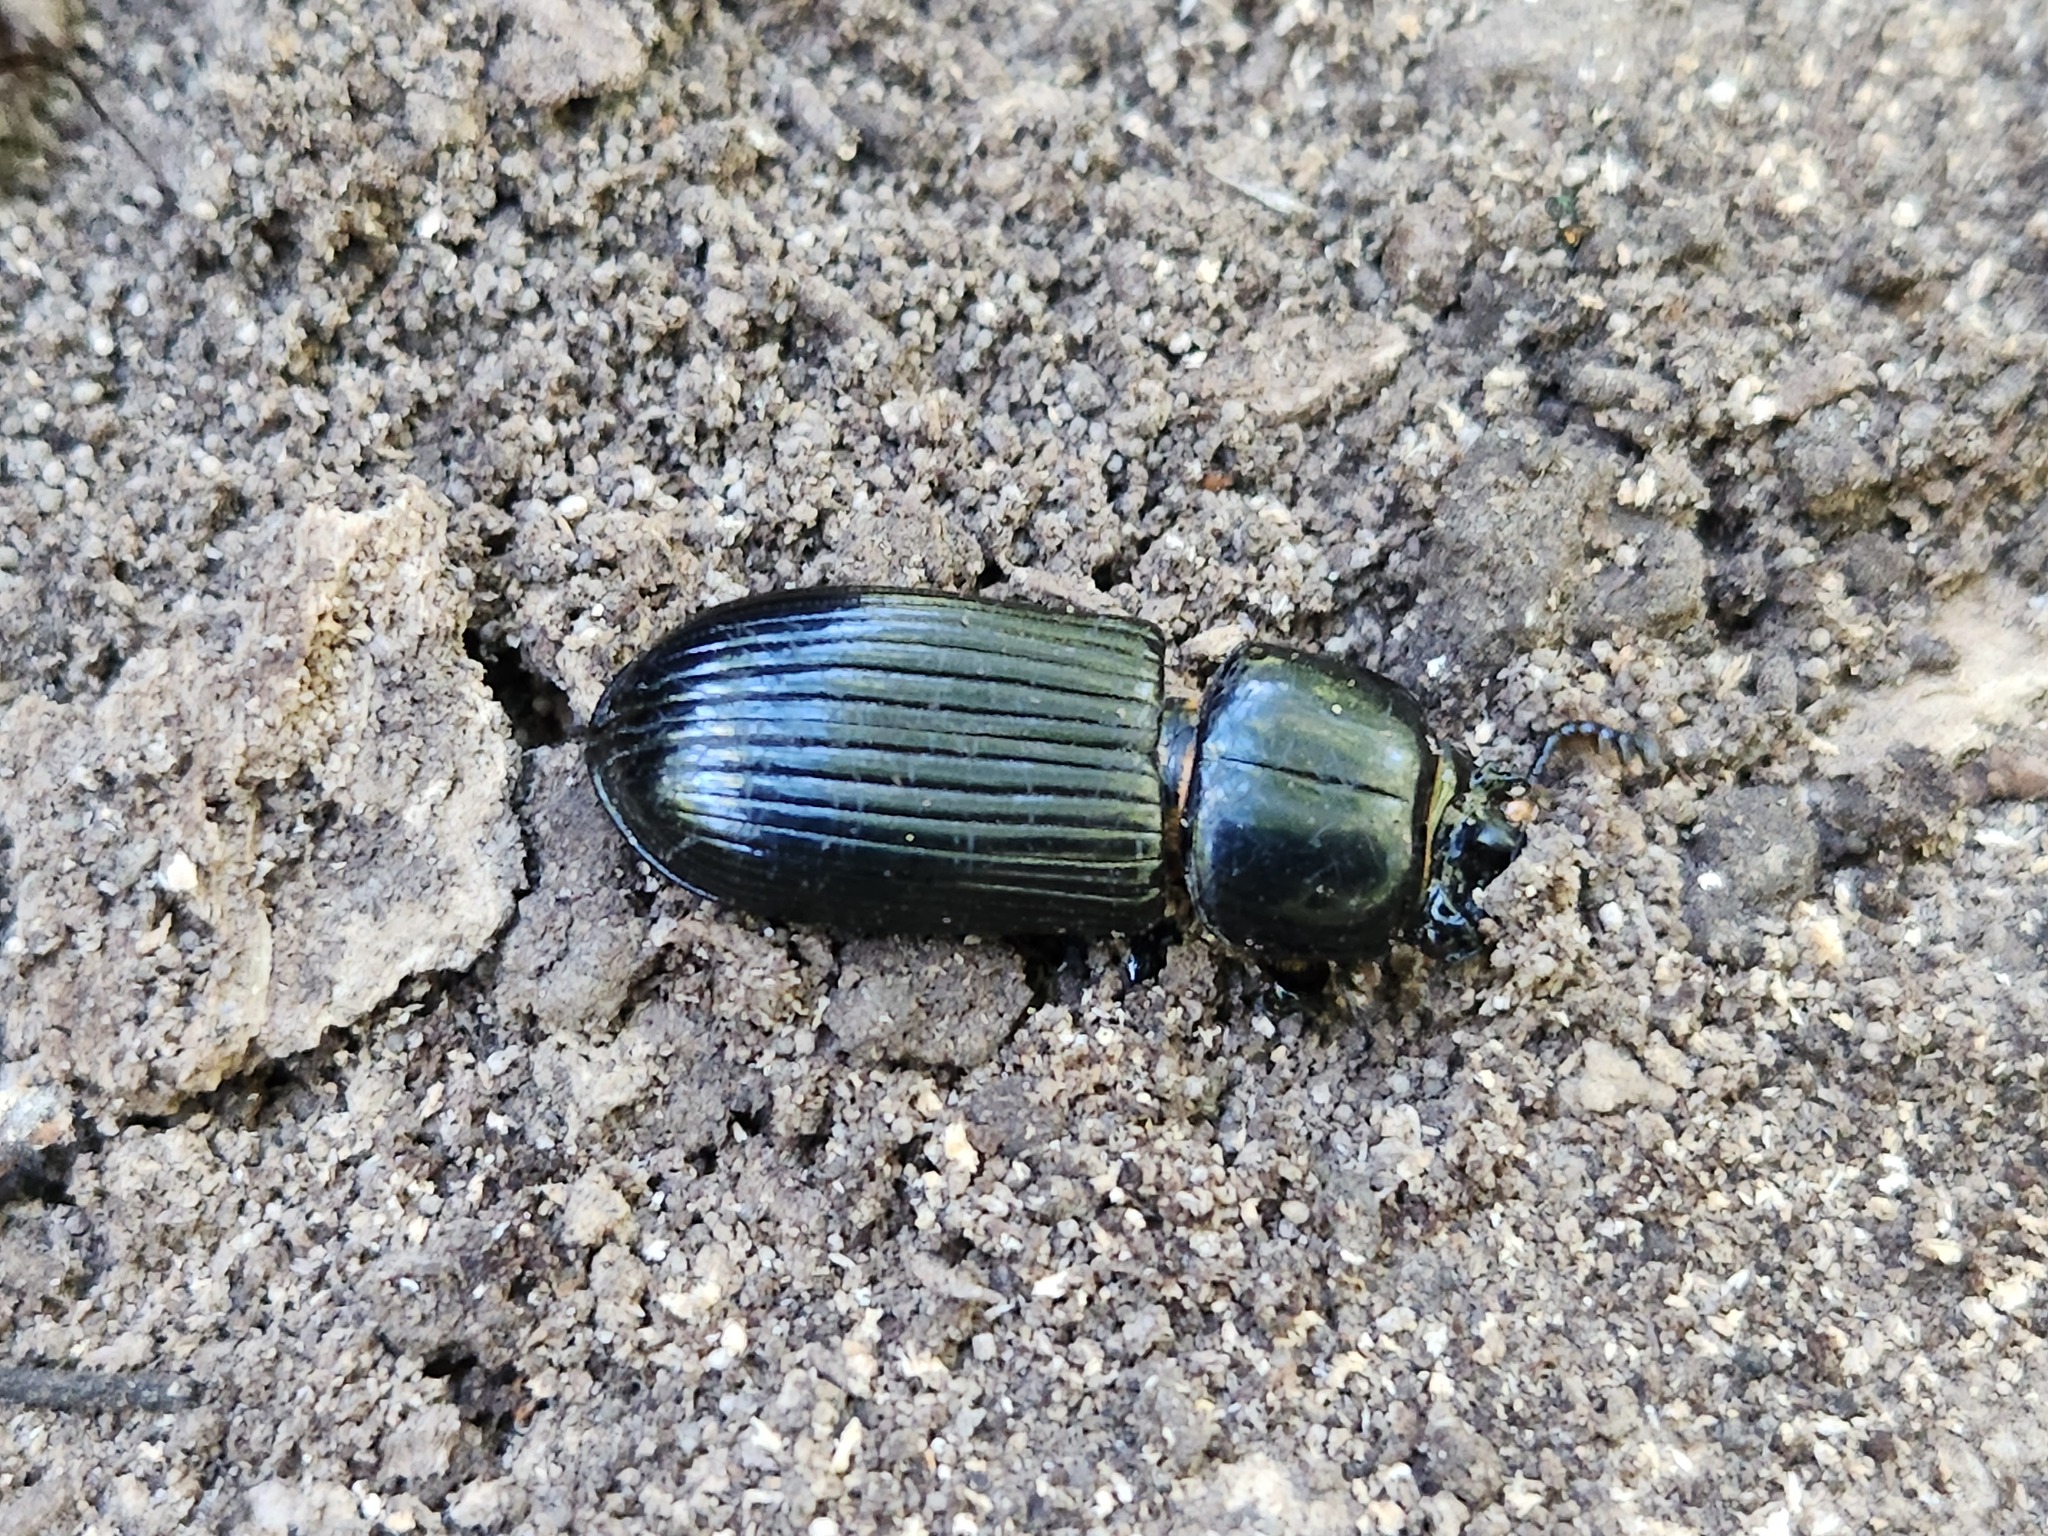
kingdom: Animalia
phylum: Arthropoda
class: Insecta
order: Coleoptera
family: Passalidae
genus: Odontotaenius
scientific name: Odontotaenius disjunctus
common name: Patent leather beetle
